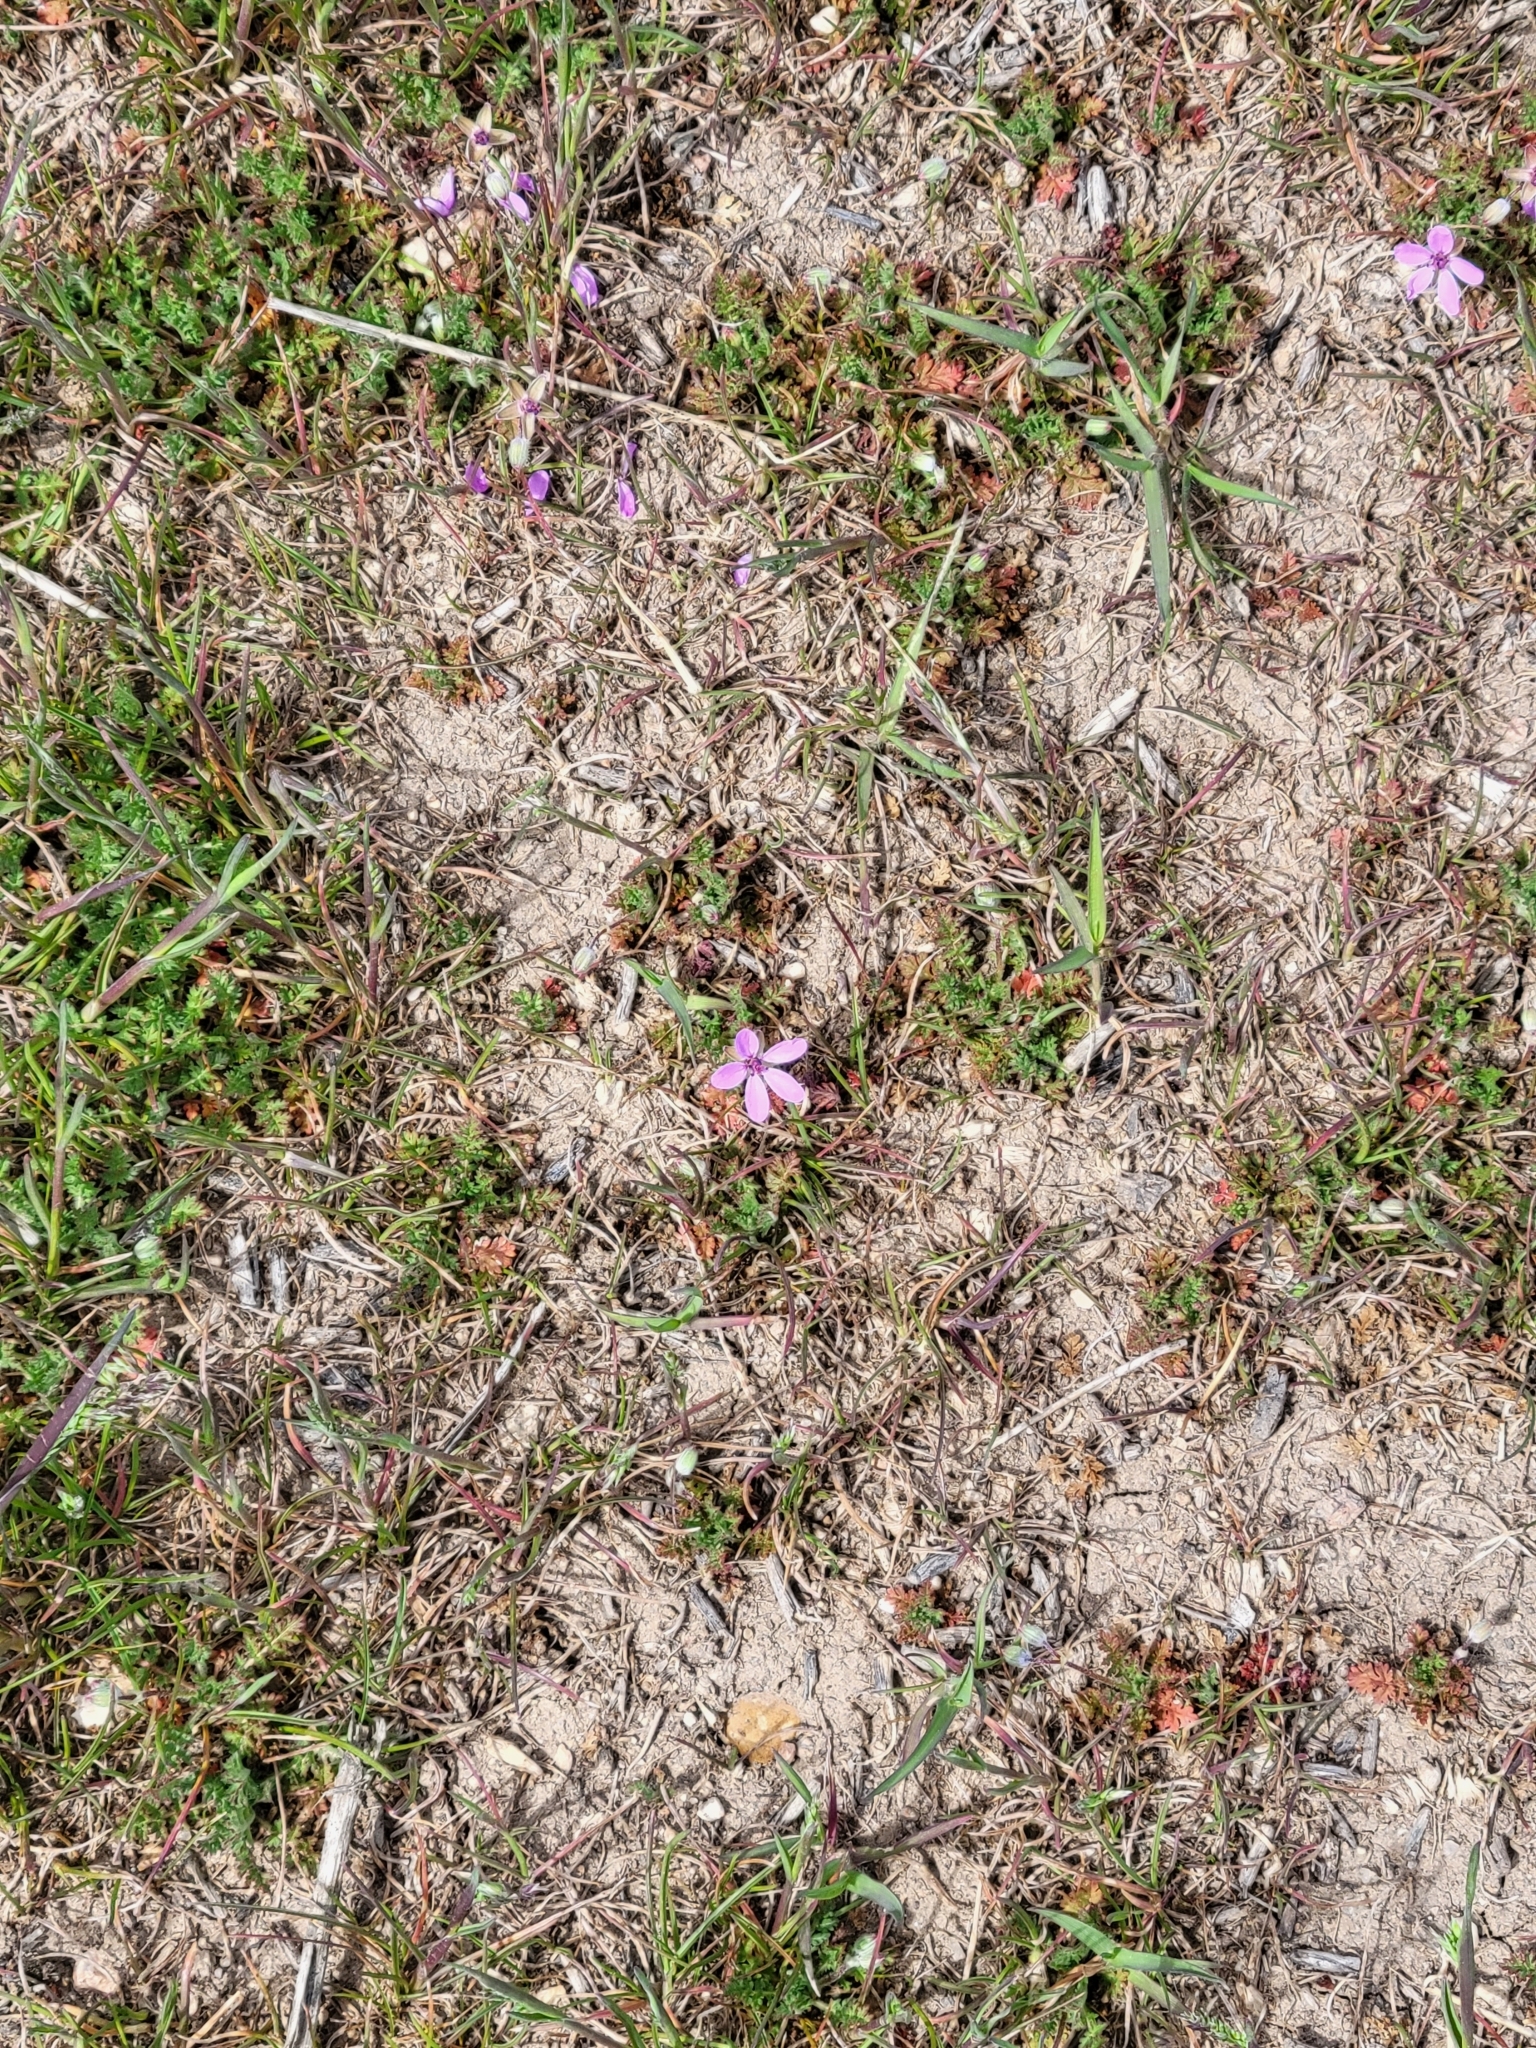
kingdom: Plantae
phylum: Tracheophyta
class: Magnoliopsida
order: Geraniales
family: Geraniaceae
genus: Erodium
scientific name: Erodium cicutarium
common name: Common stork's-bill
